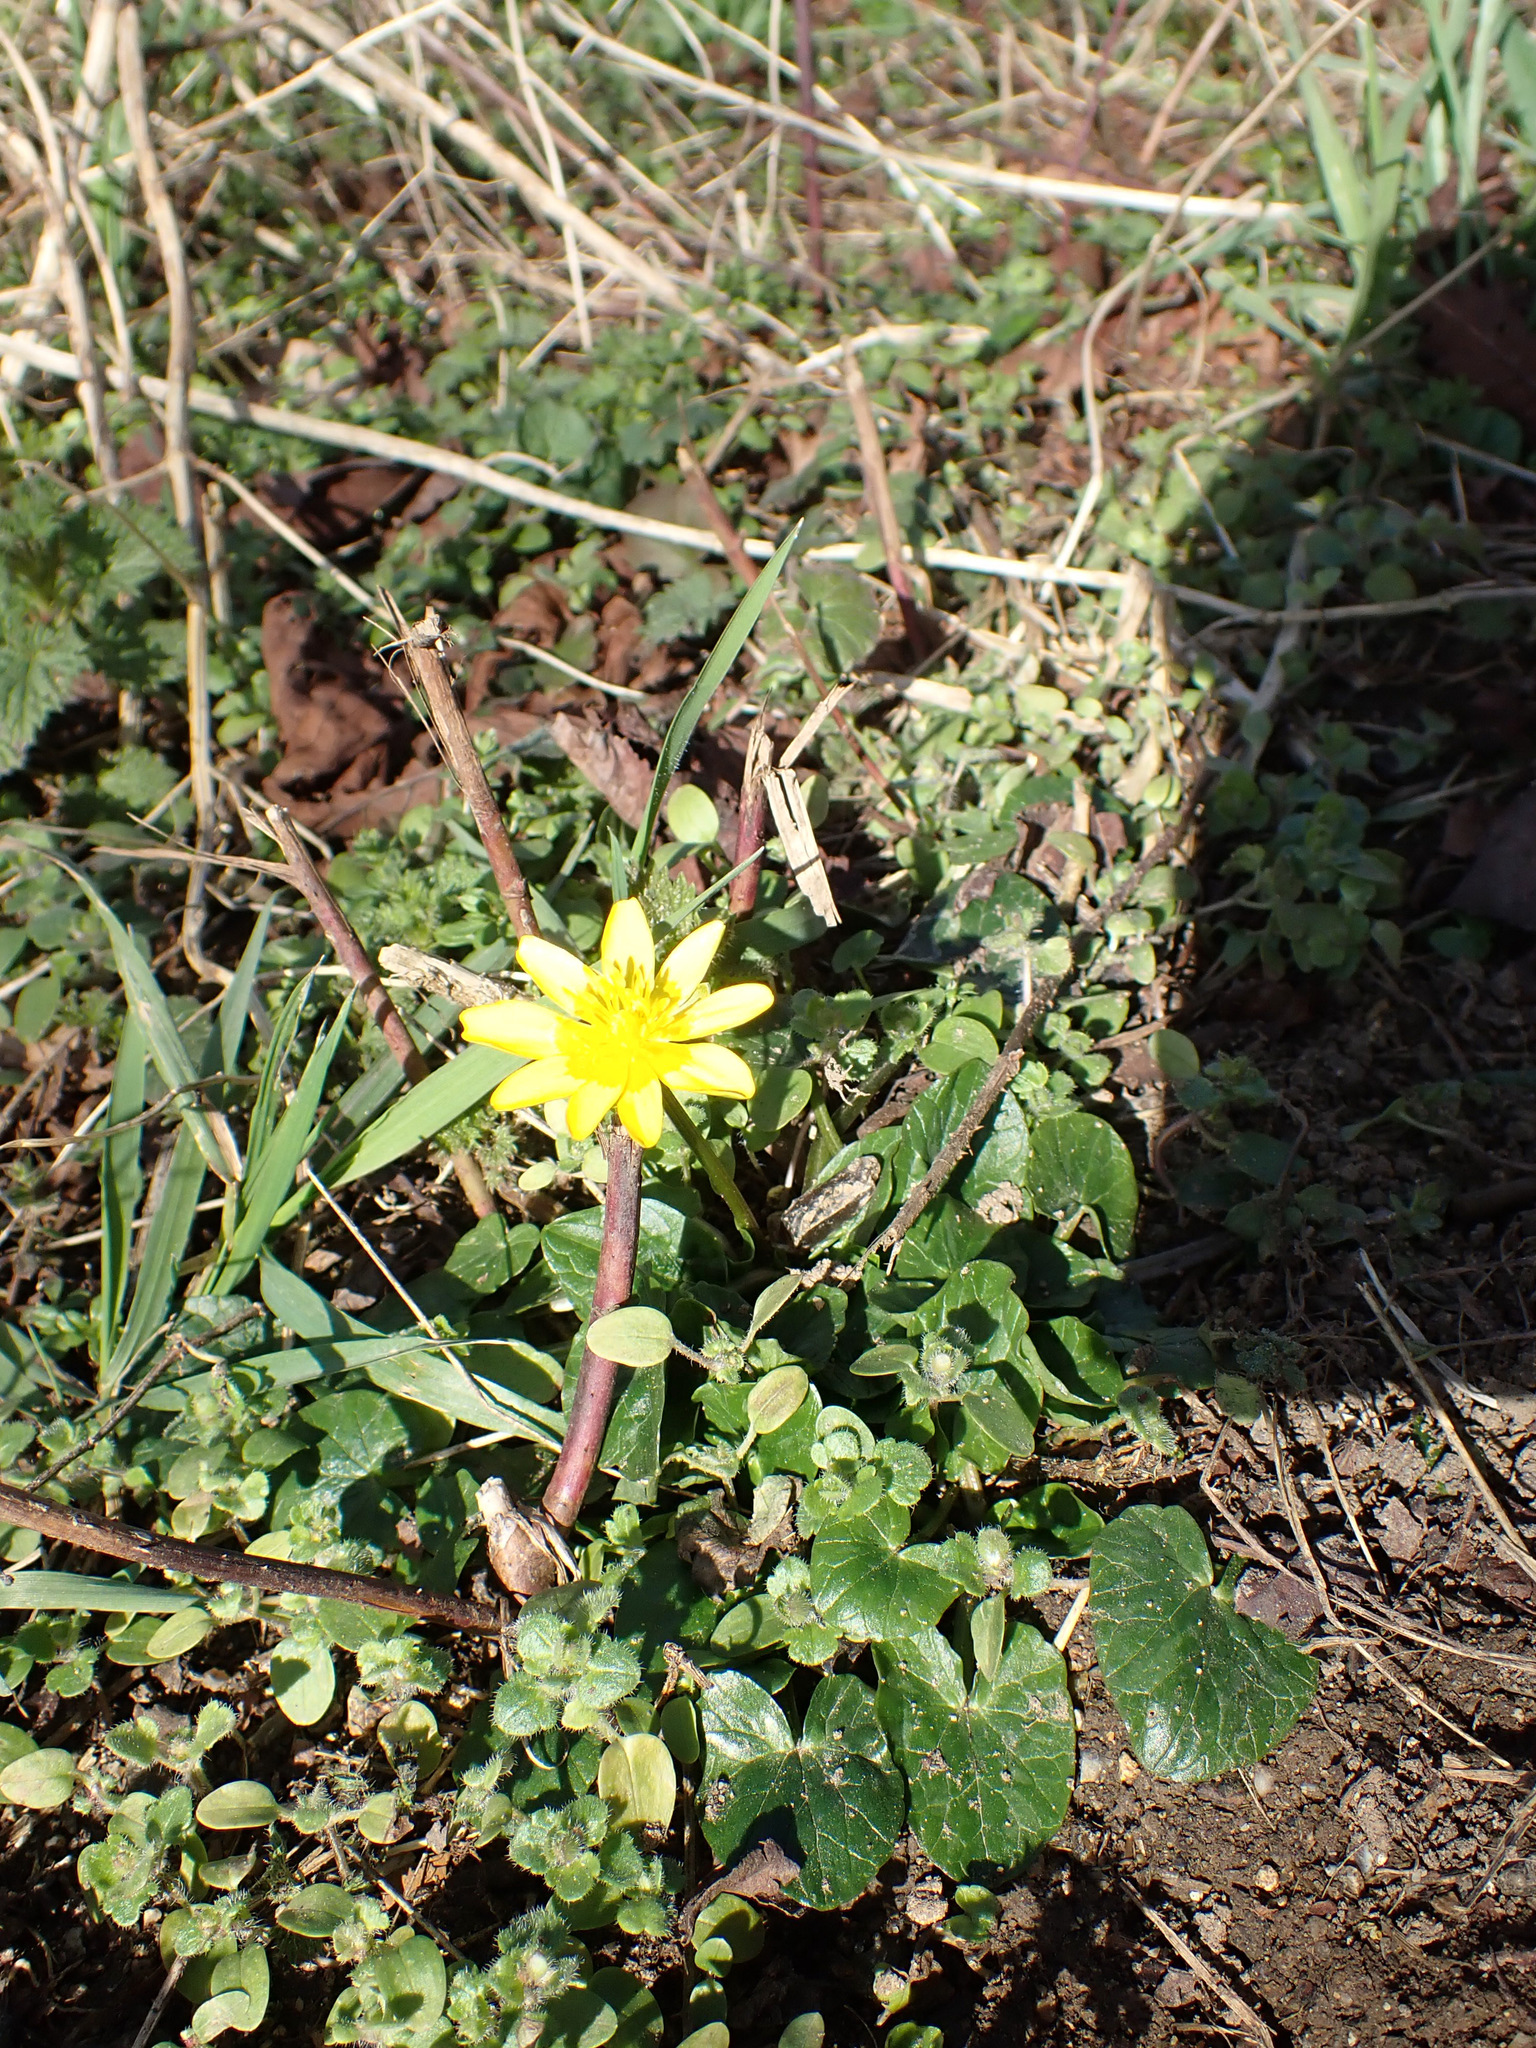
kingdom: Plantae
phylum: Tracheophyta
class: Magnoliopsida
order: Ranunculales
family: Ranunculaceae
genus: Ficaria
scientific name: Ficaria verna
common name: Lesser celandine
